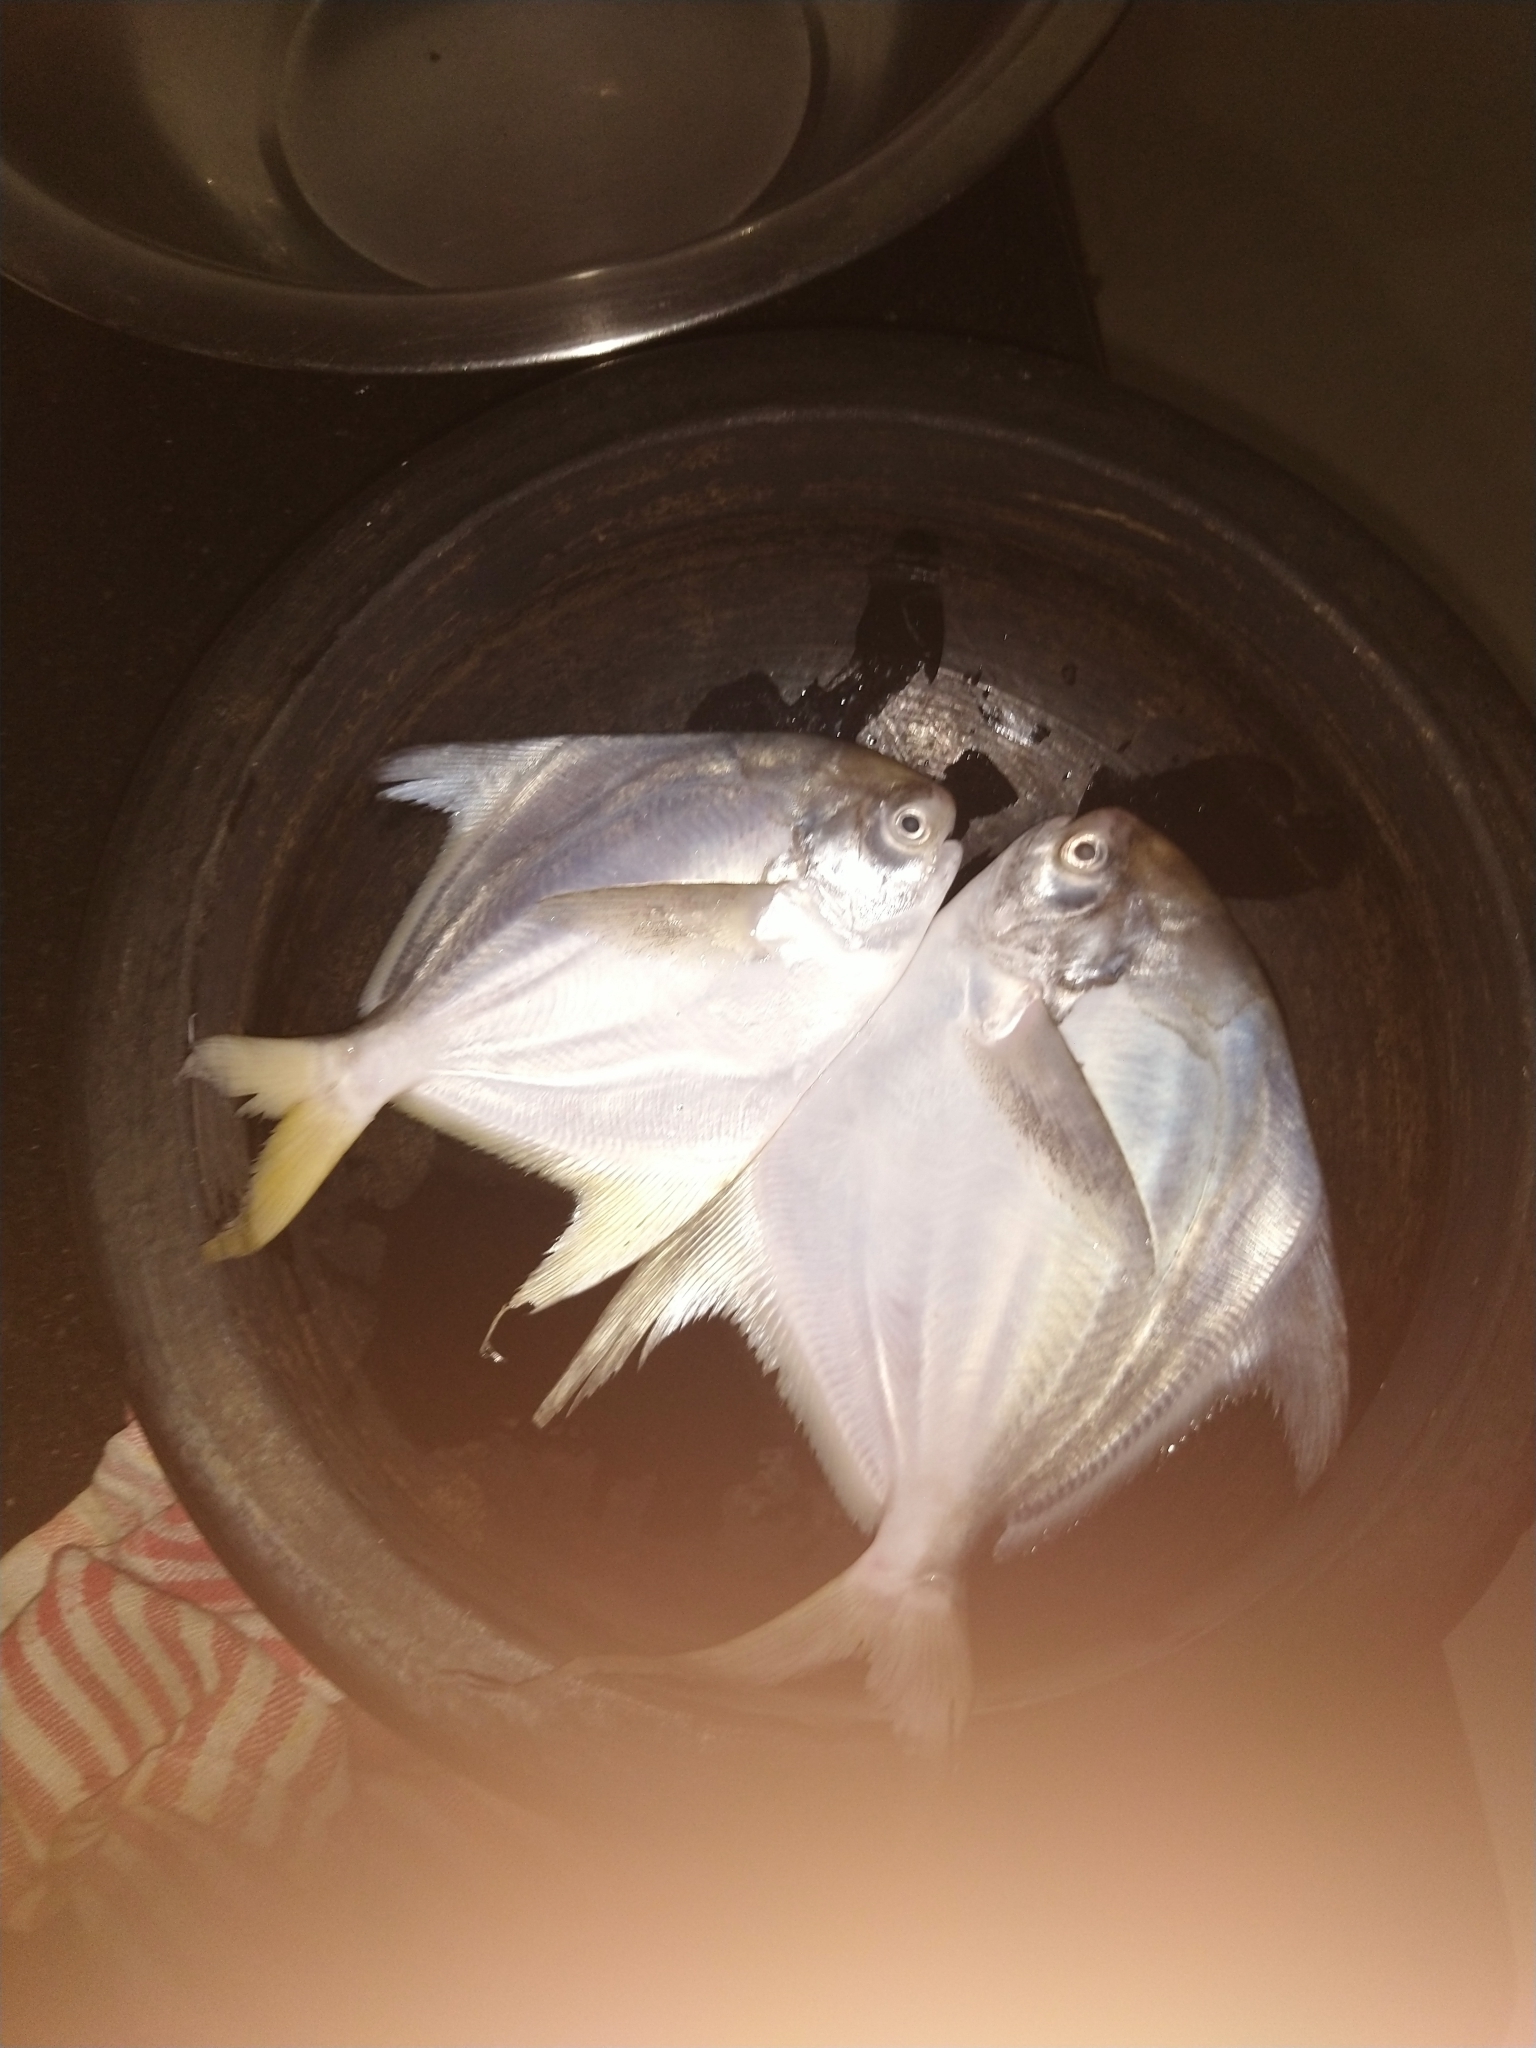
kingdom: Animalia
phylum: Chordata
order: Perciformes
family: Stromateidae
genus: Pampus
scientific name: Pampus argenteus
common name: Silver pomfret
